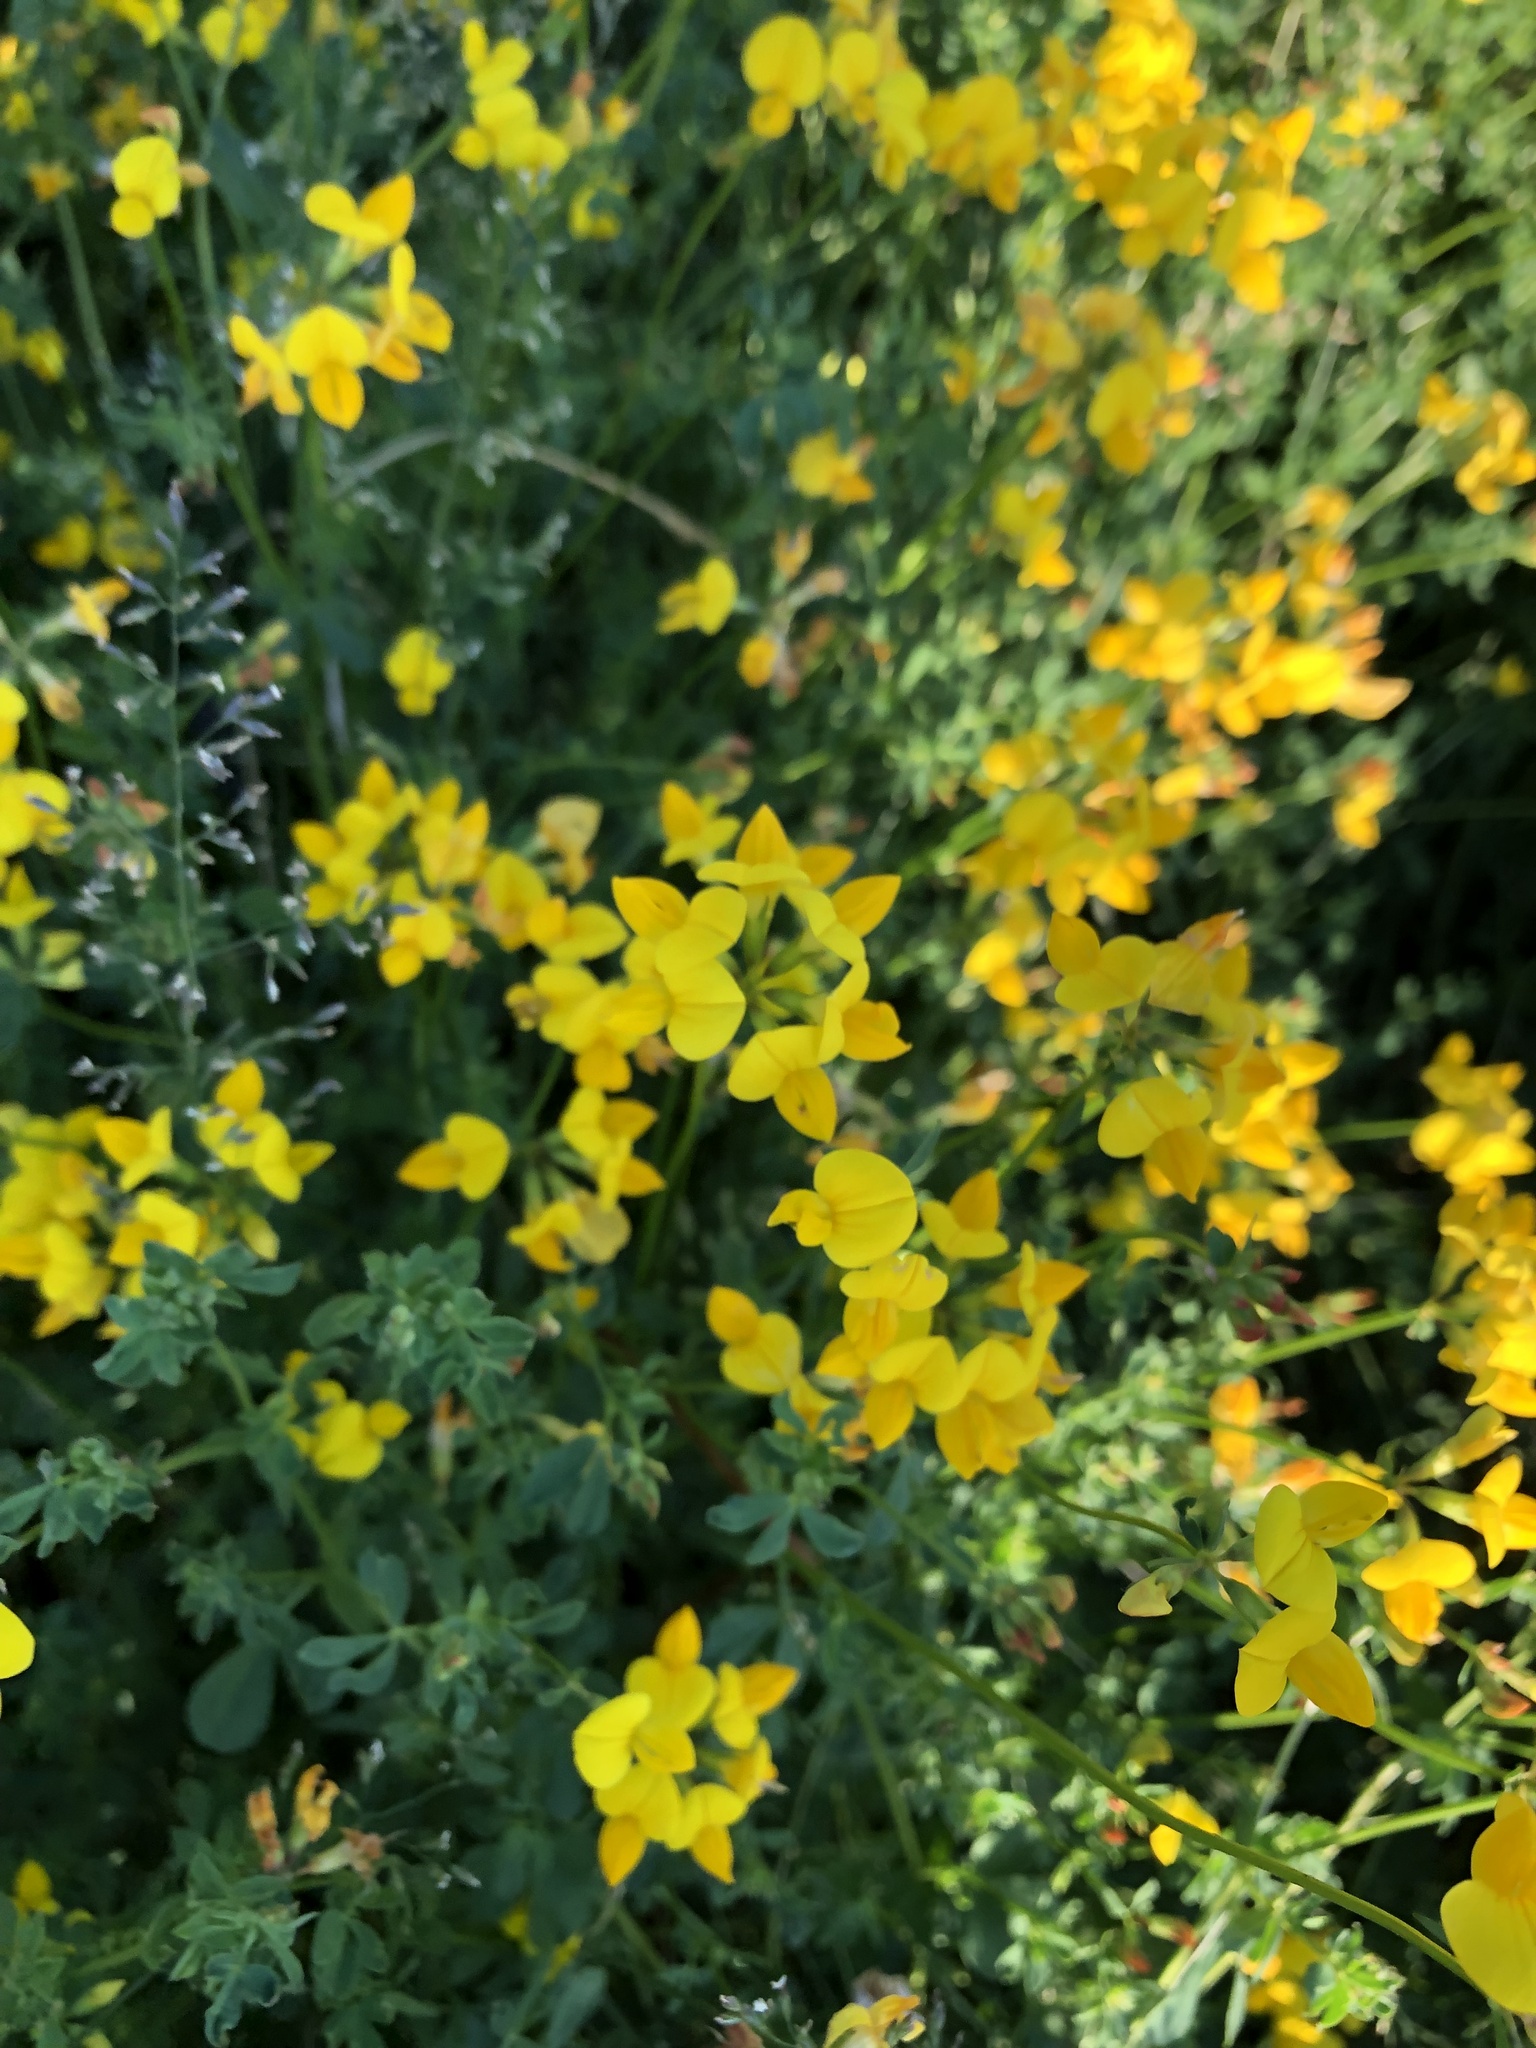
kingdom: Plantae
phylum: Tracheophyta
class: Magnoliopsida
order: Fabales
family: Fabaceae
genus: Lotus
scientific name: Lotus corniculatus
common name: Common bird's-foot-trefoil
